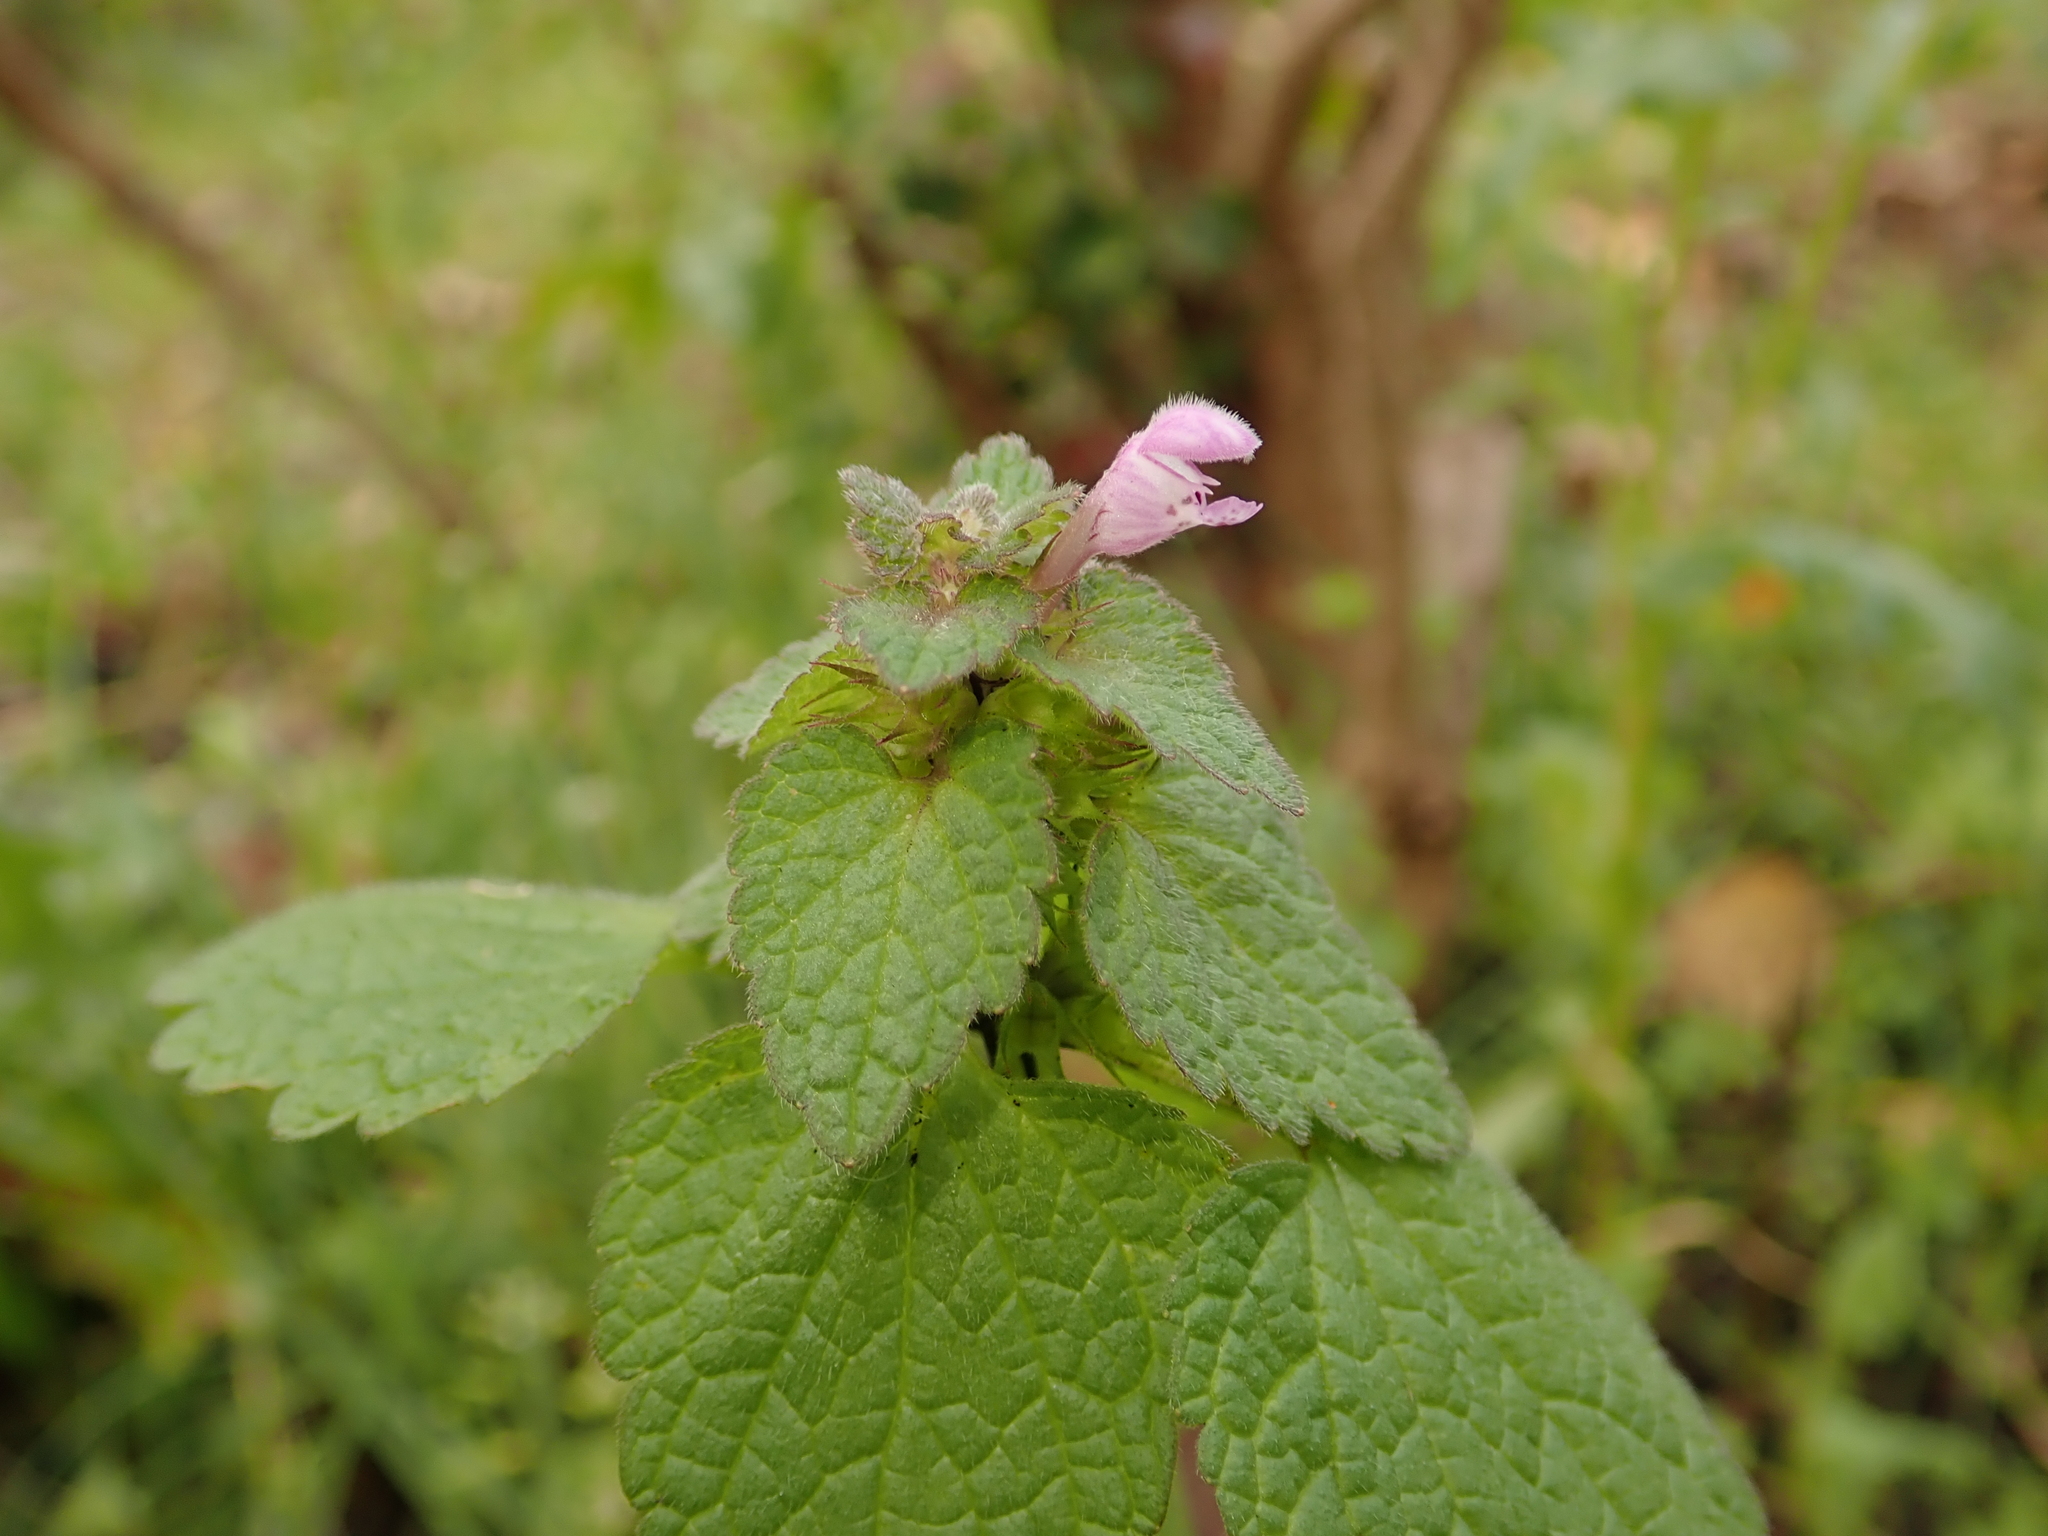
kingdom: Plantae
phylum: Tracheophyta
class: Magnoliopsida
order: Lamiales
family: Lamiaceae
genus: Lamium
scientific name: Lamium purpureum
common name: Red dead-nettle
